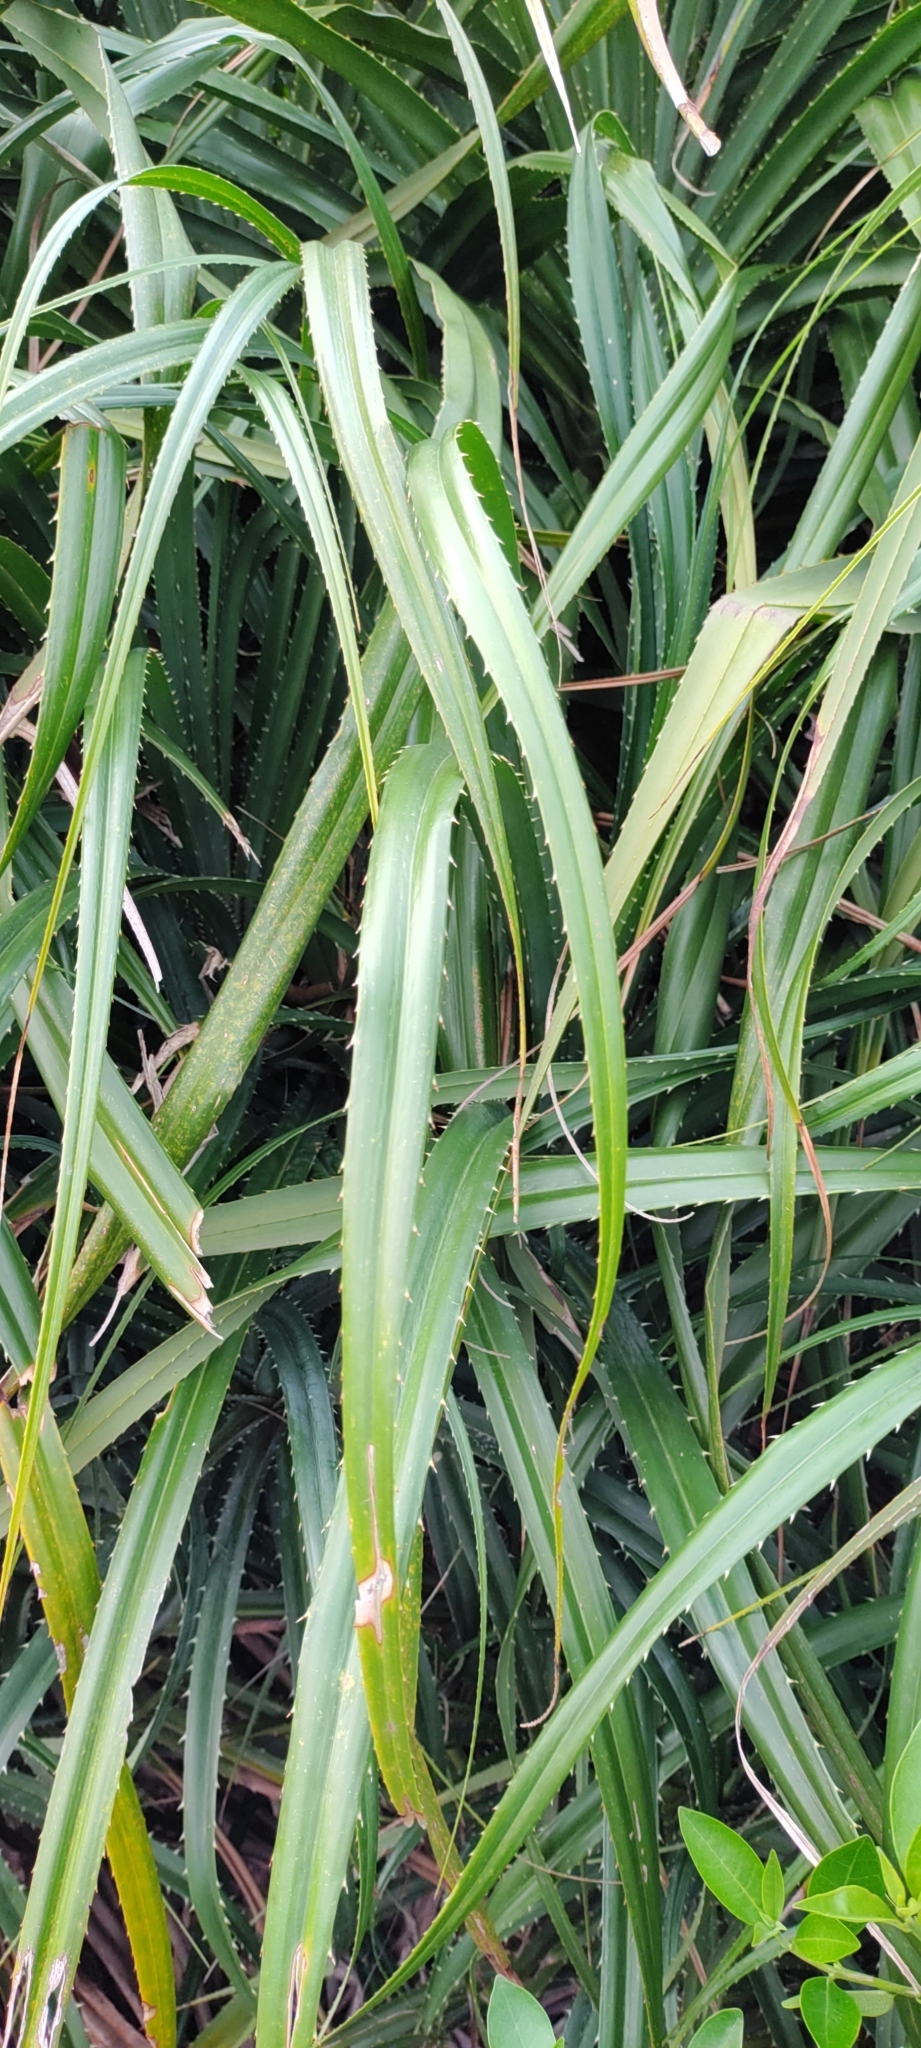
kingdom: Plantae
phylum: Tracheophyta
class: Liliopsida
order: Pandanales
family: Pandanaceae
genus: Pandanus
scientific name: Pandanus odorifer
